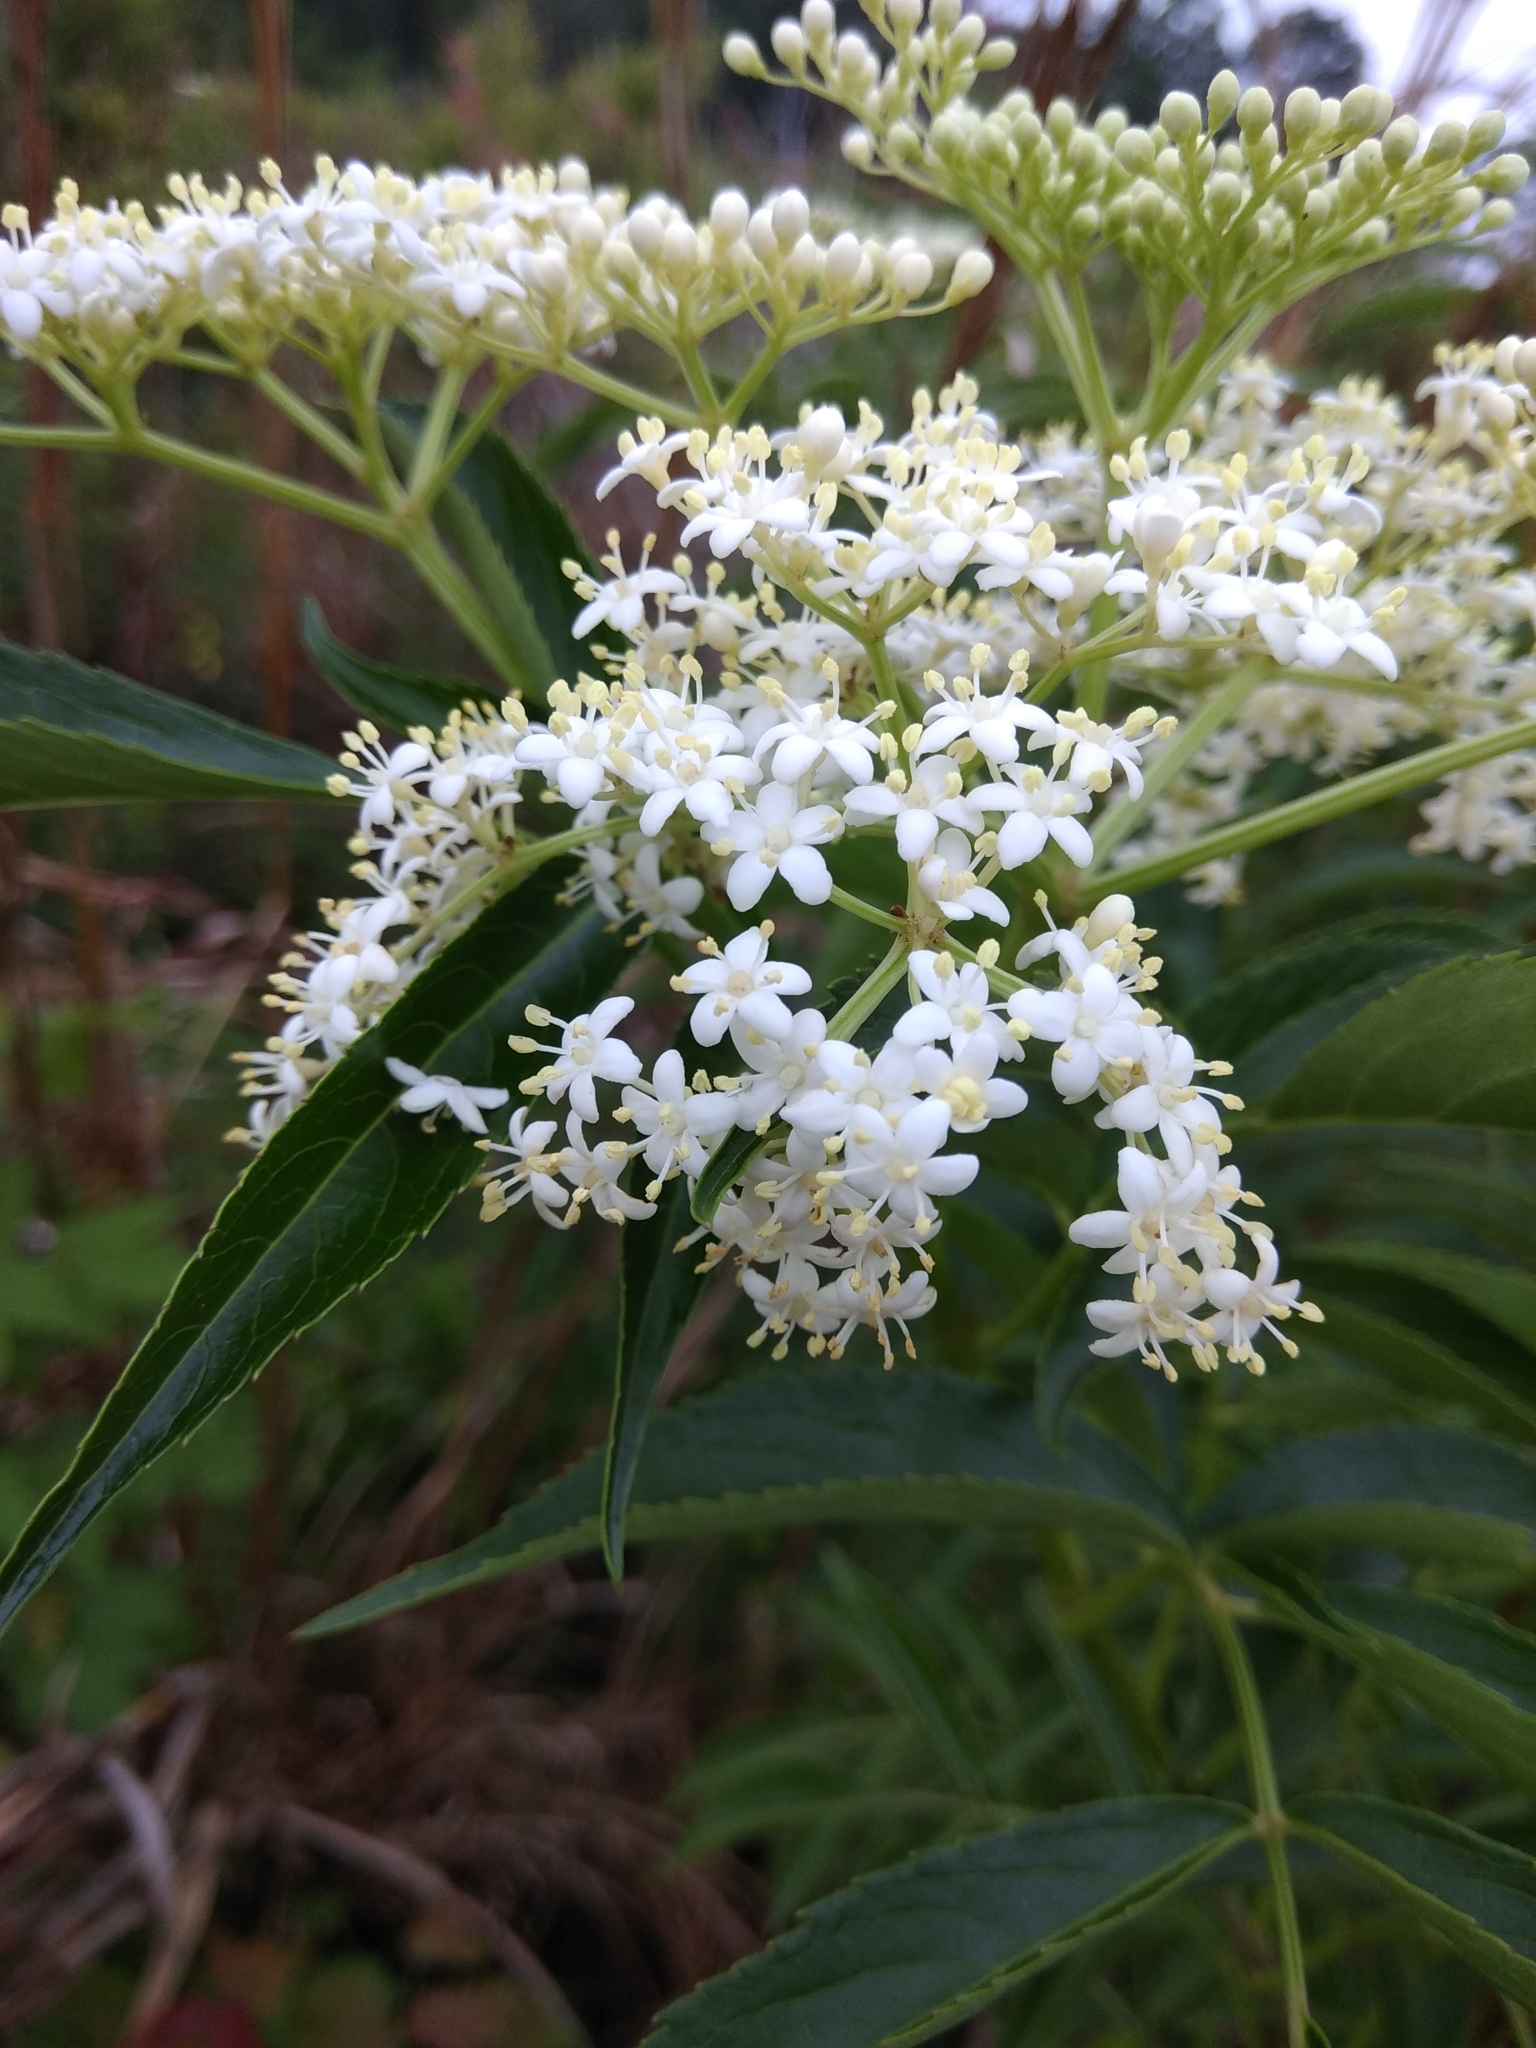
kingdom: Plantae
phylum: Tracheophyta
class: Magnoliopsida
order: Dipsacales
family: Viburnaceae
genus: Sambucus
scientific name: Sambucus canadensis
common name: American elder
